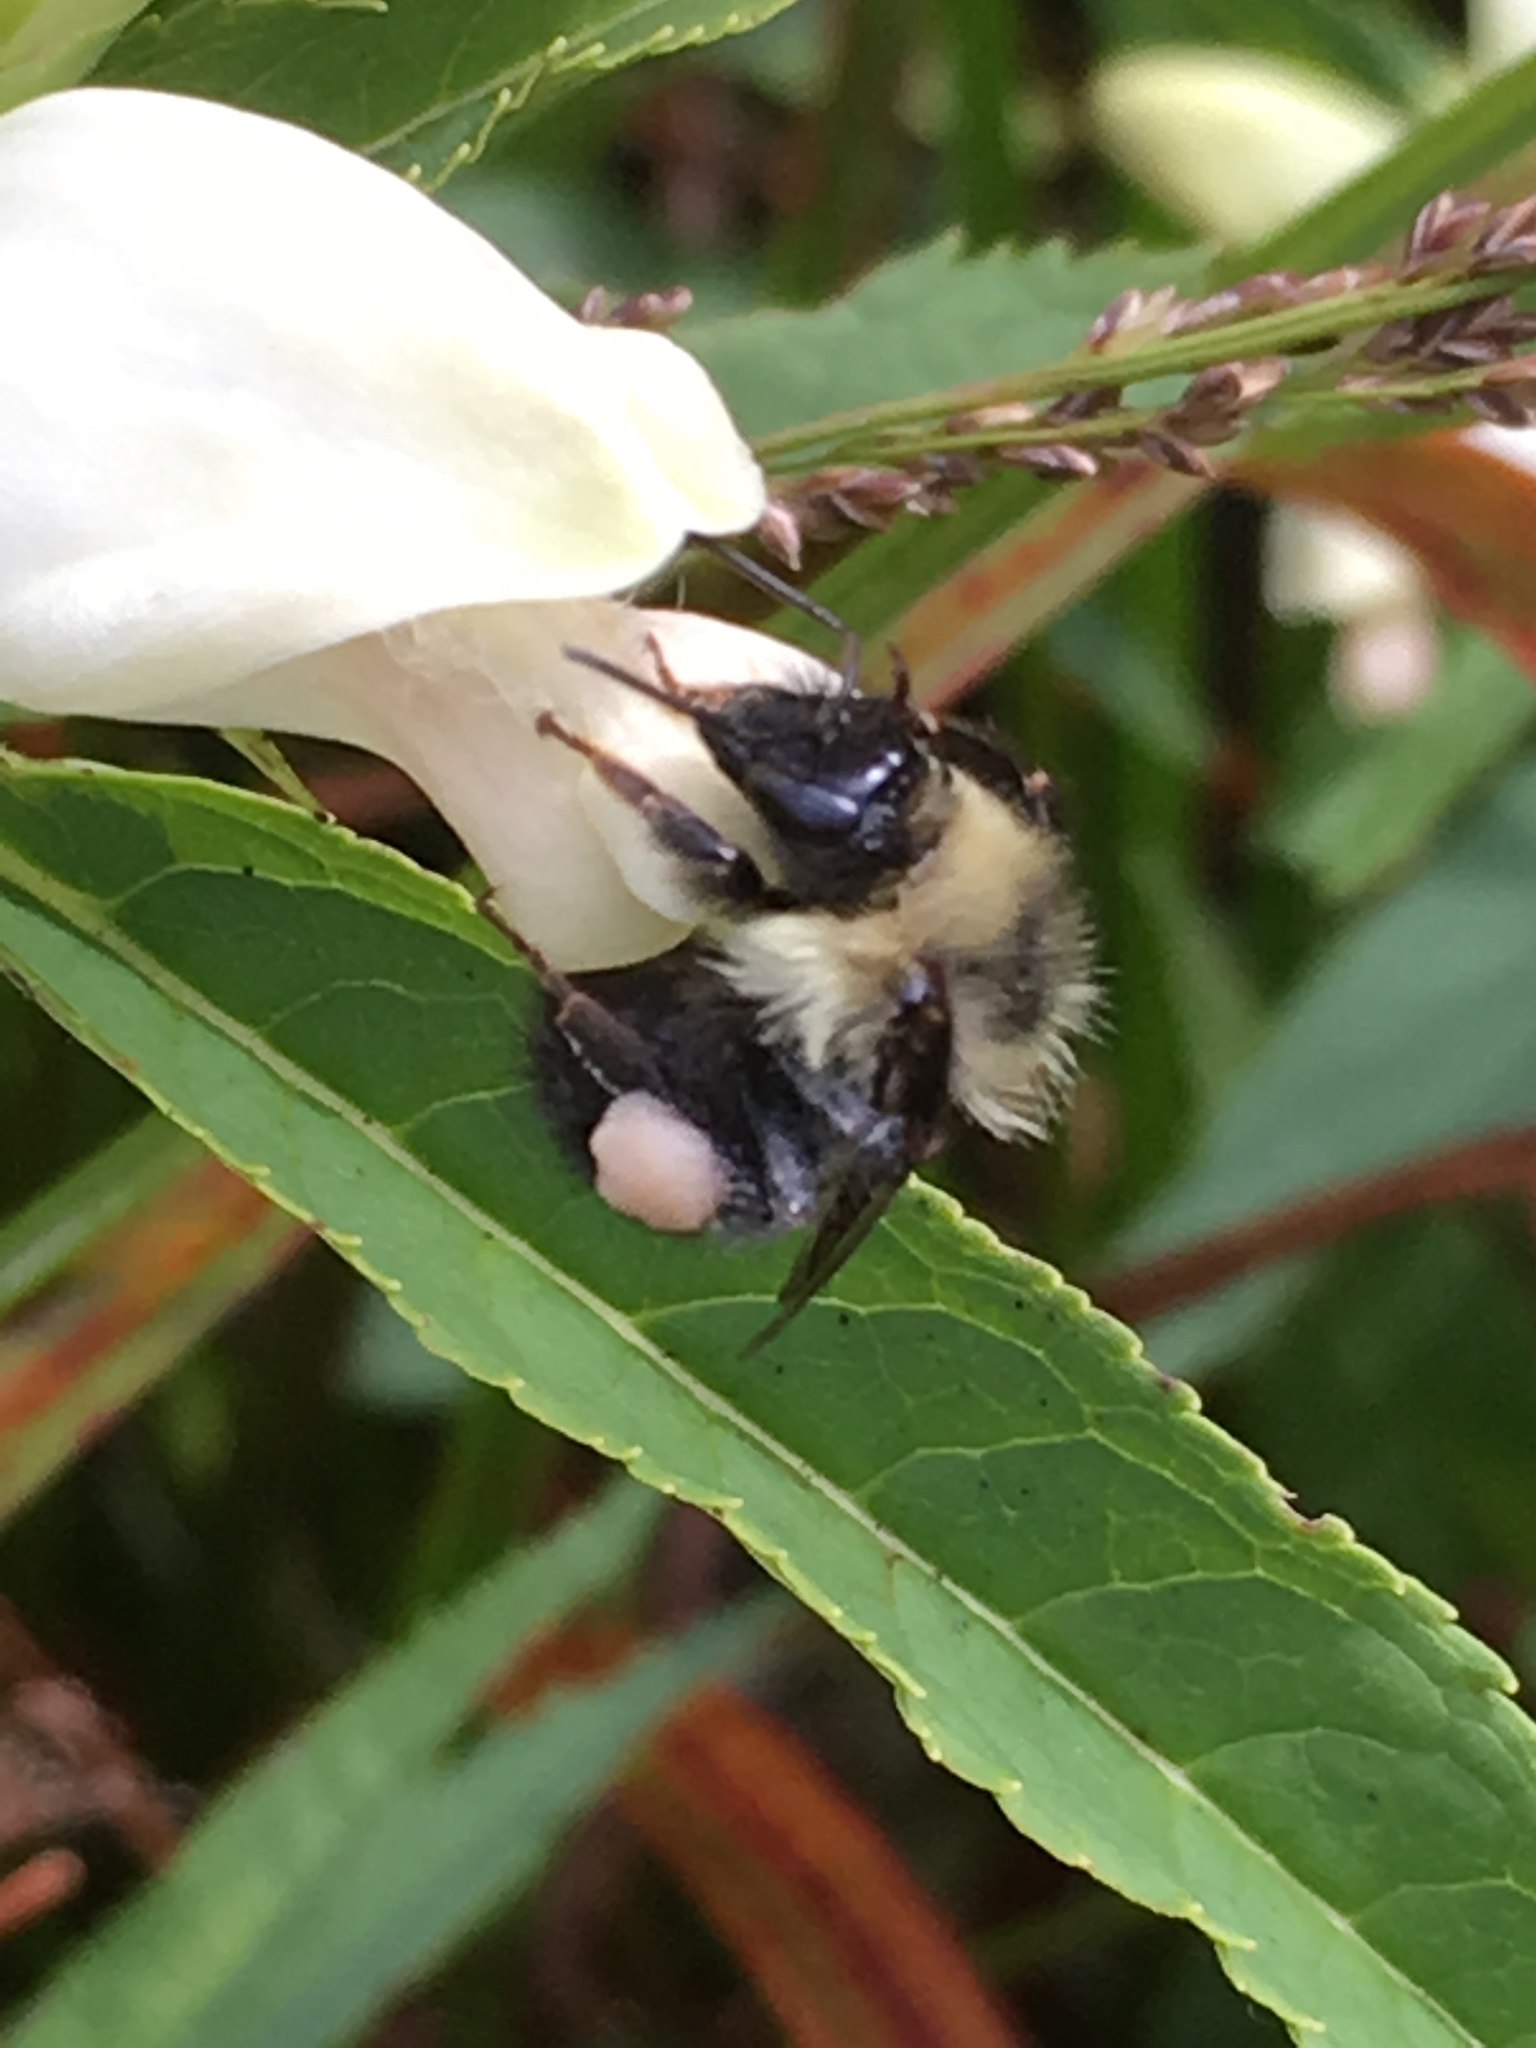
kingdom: Animalia
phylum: Arthropoda
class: Insecta
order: Hymenoptera
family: Apidae
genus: Pyrobombus
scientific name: Pyrobombus
